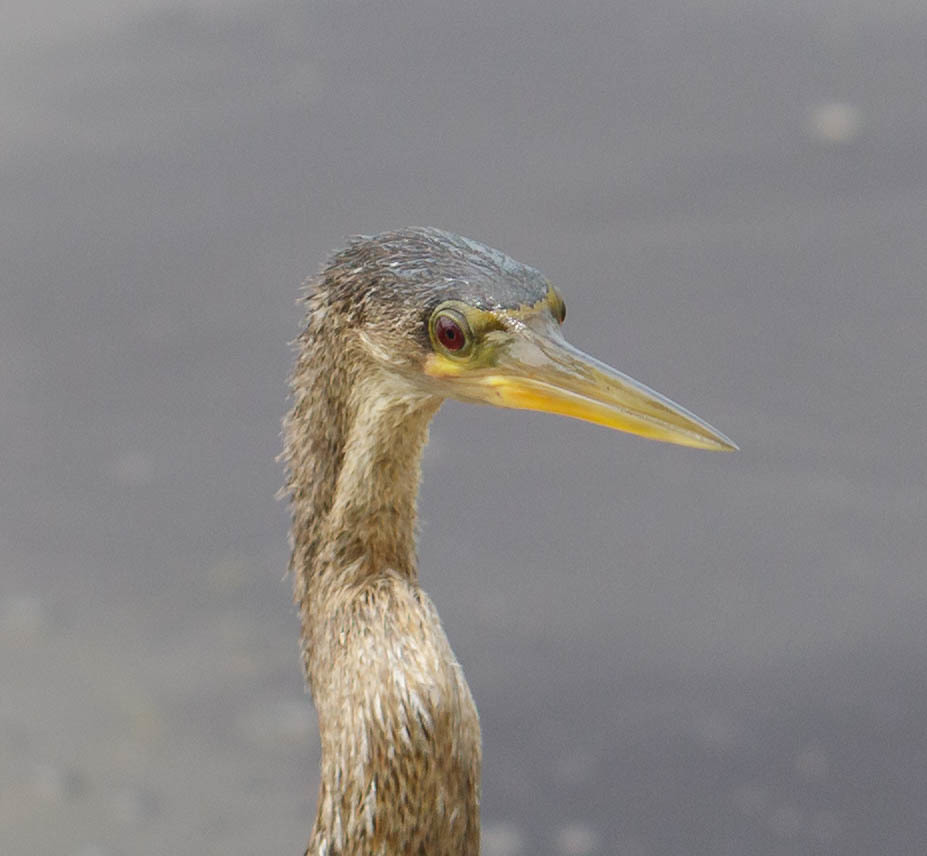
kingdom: Animalia
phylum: Chordata
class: Aves
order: Suliformes
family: Anhingidae
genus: Anhinga
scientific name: Anhinga anhinga
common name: Anhinga
